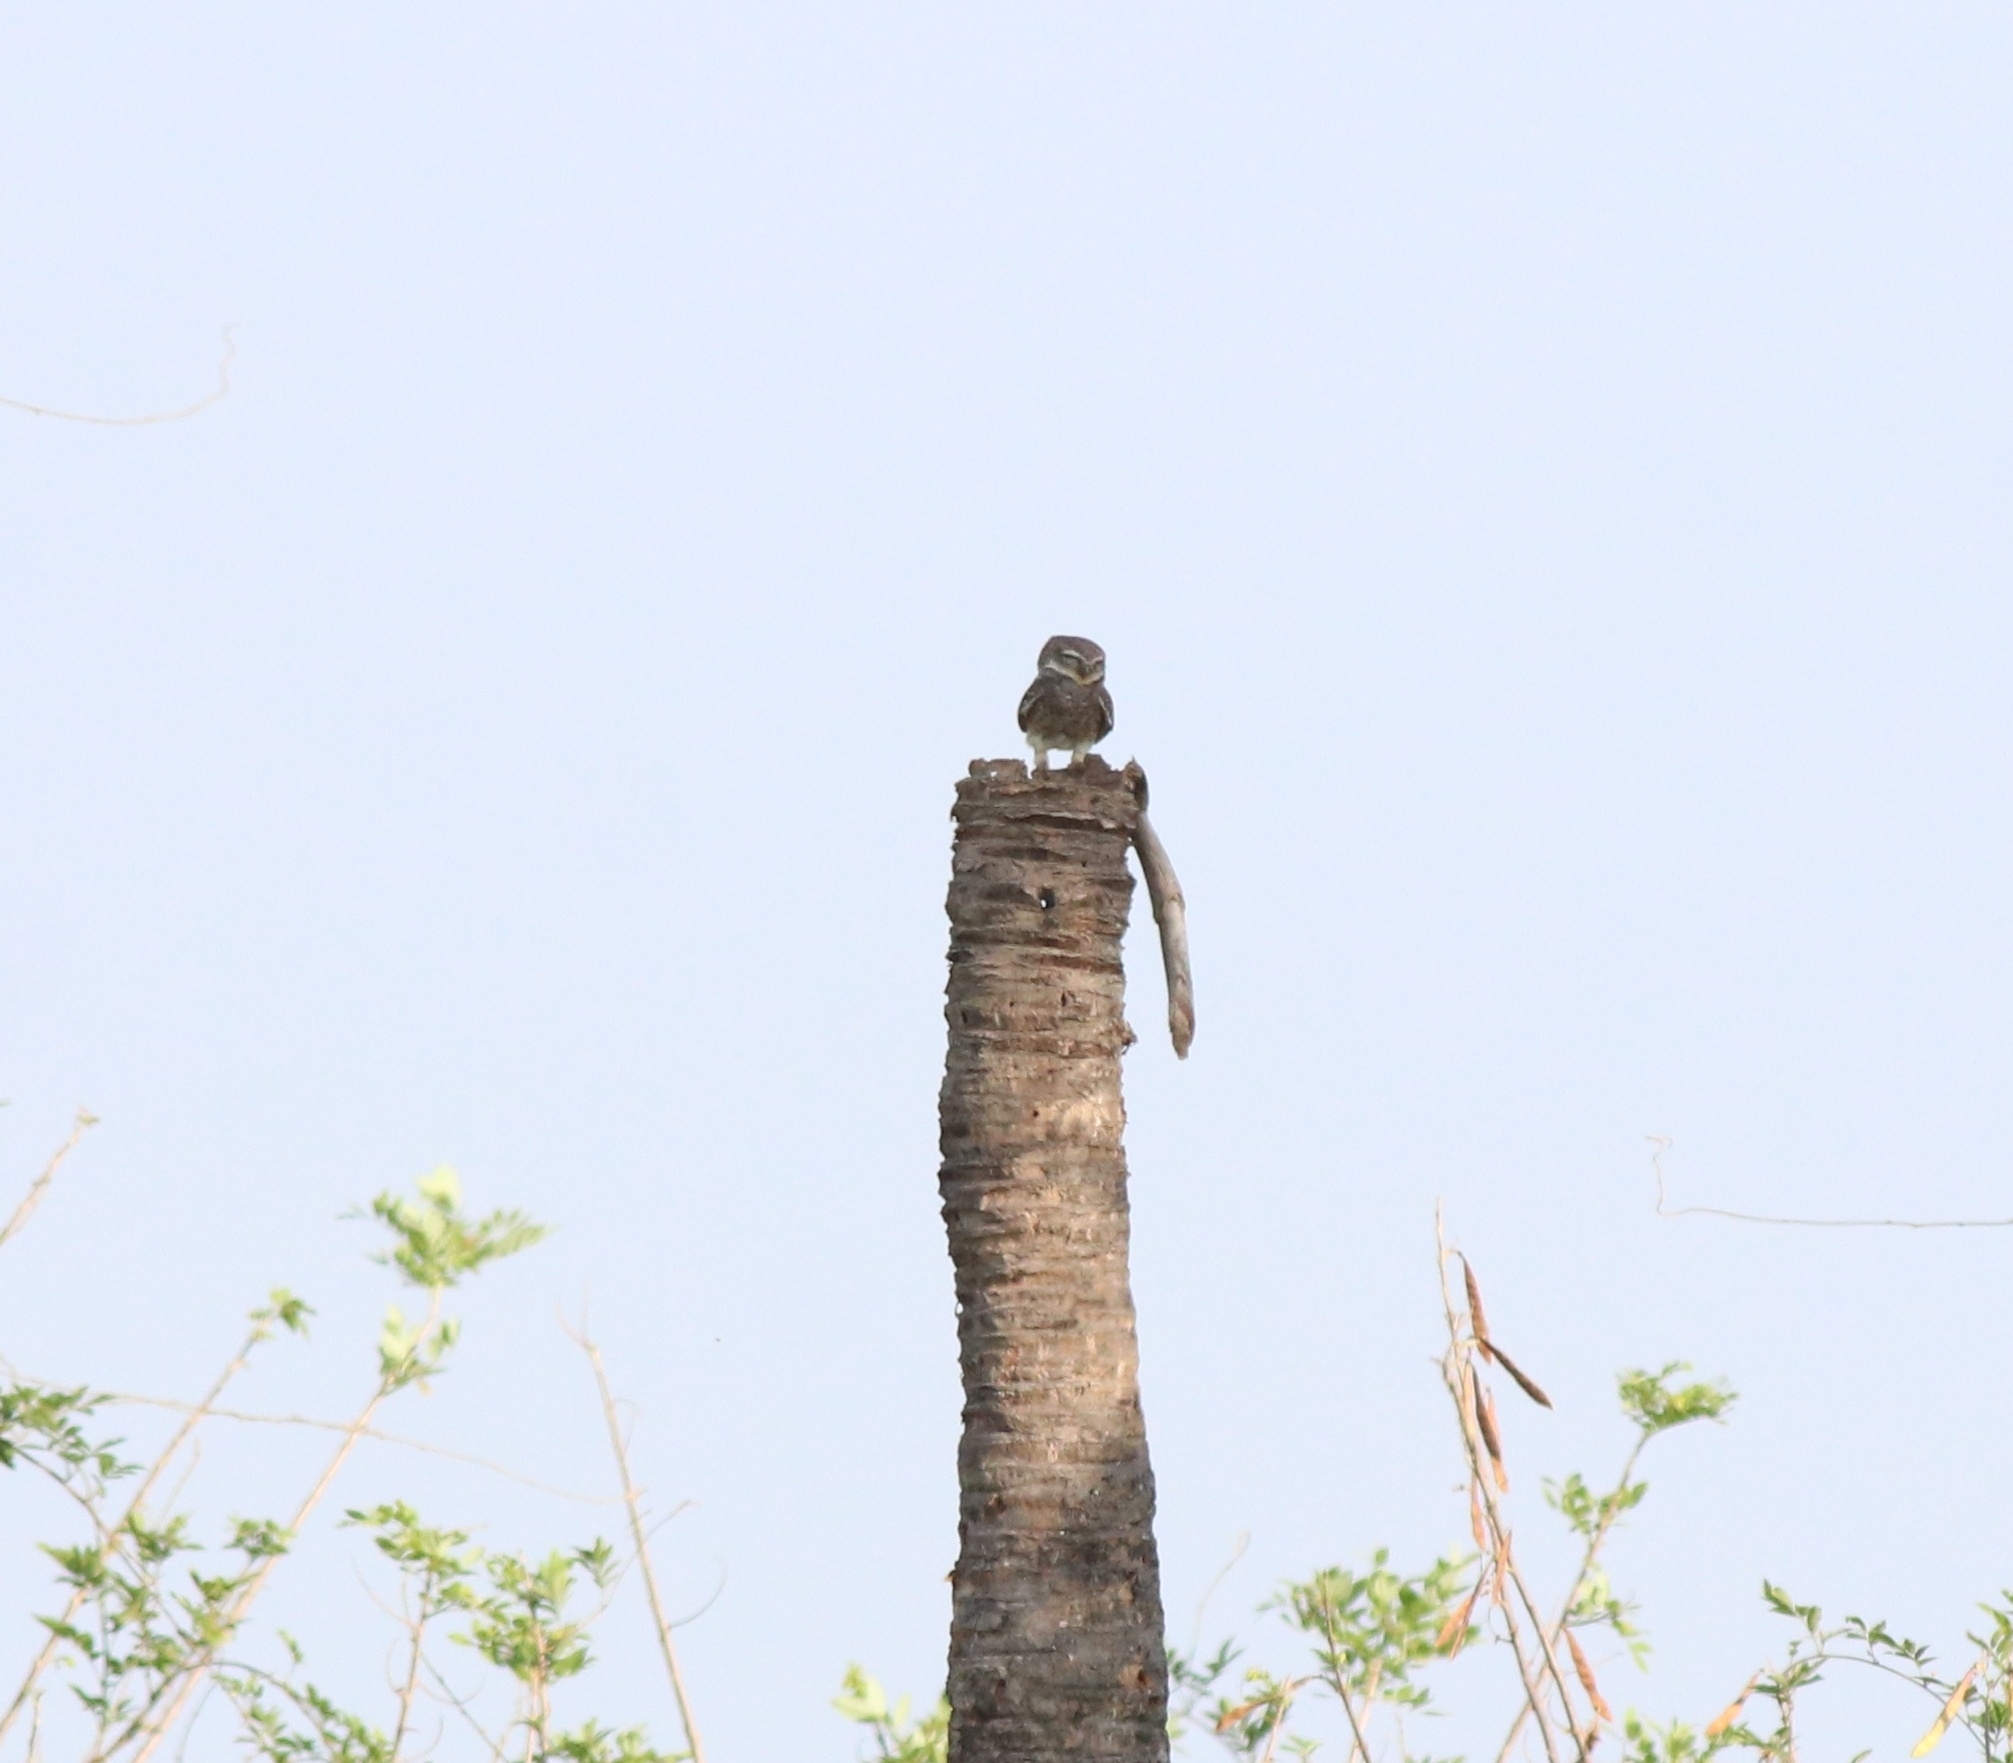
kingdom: Animalia
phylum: Chordata
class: Aves
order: Strigiformes
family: Strigidae
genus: Athene
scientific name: Athene brama
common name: Spotted owlet
